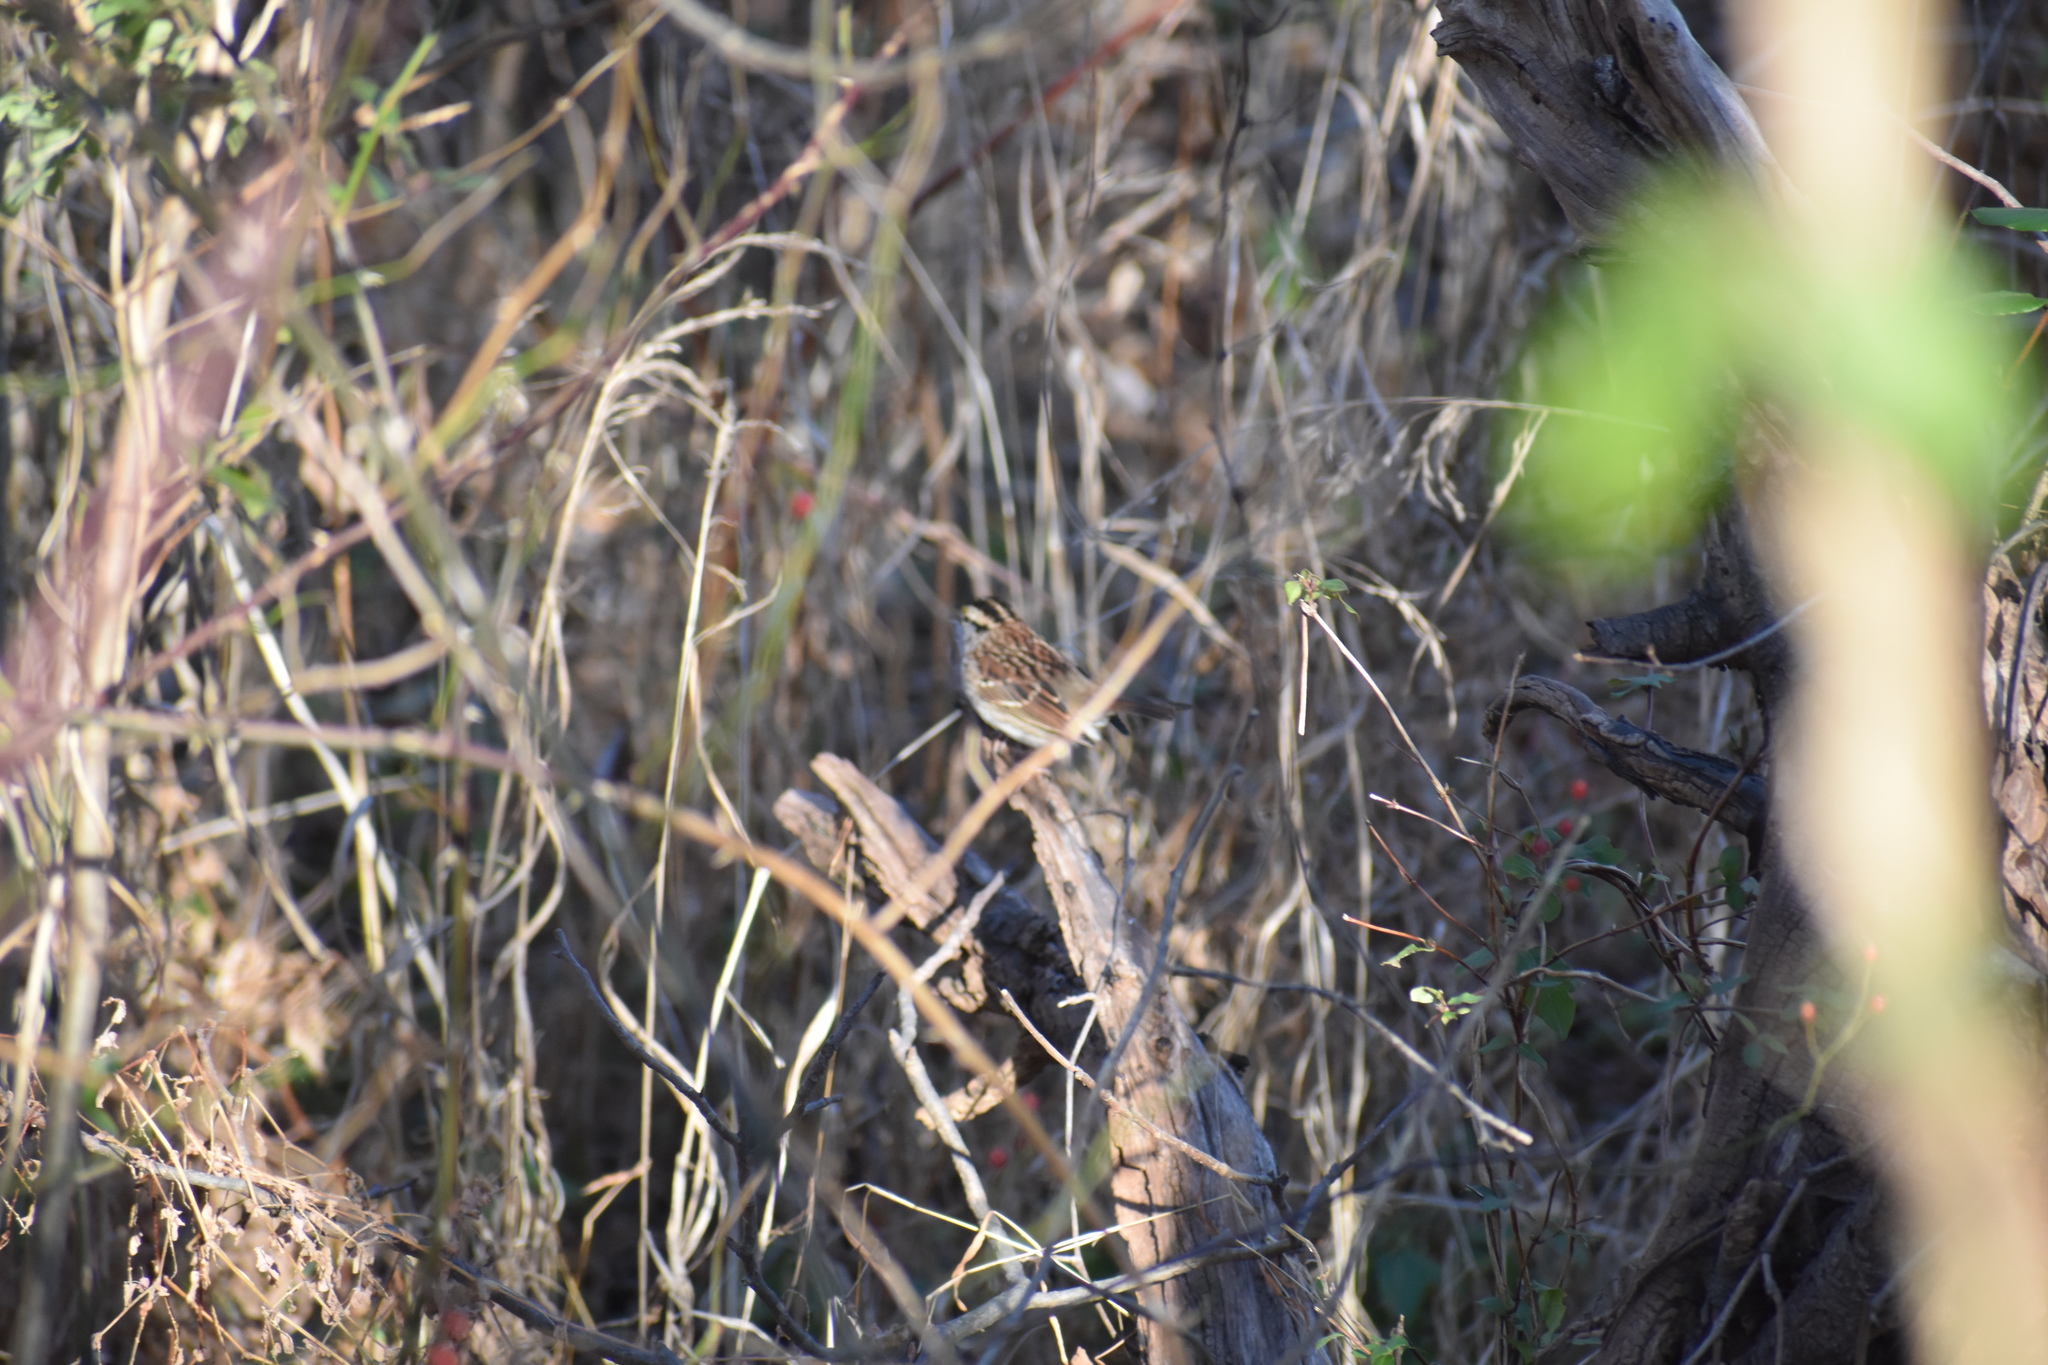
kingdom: Animalia
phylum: Chordata
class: Aves
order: Passeriformes
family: Passerellidae
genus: Zonotrichia
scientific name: Zonotrichia albicollis
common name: White-throated sparrow
